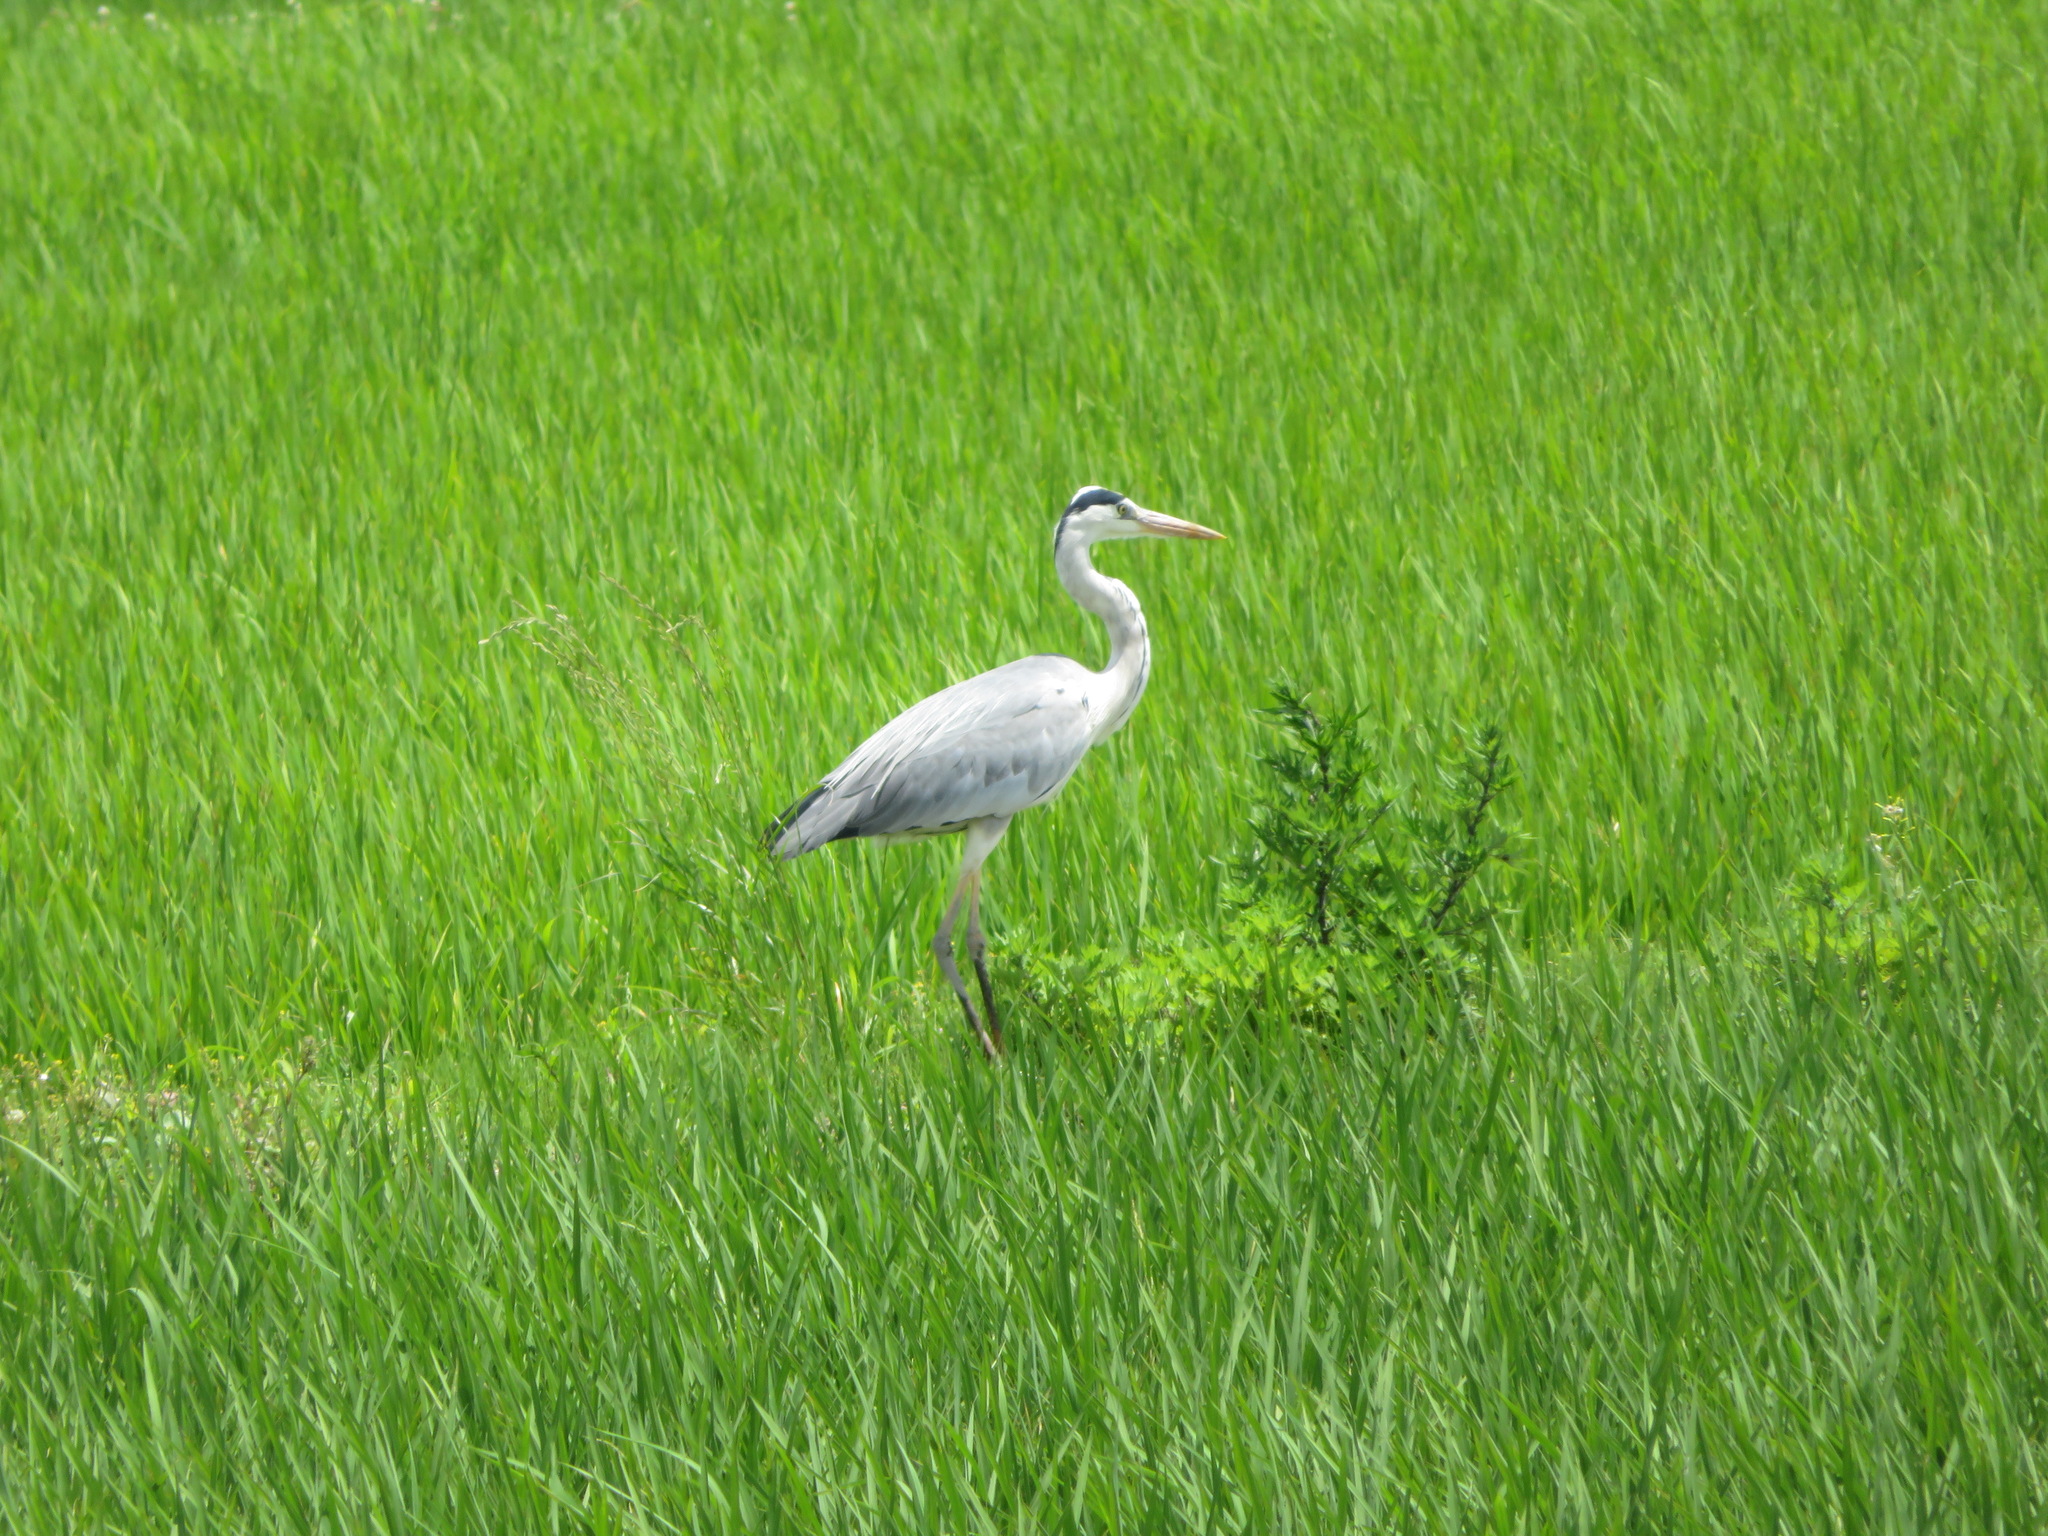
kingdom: Animalia
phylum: Chordata
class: Aves
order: Pelecaniformes
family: Ardeidae
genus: Ardea
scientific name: Ardea cinerea
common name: Grey heron
